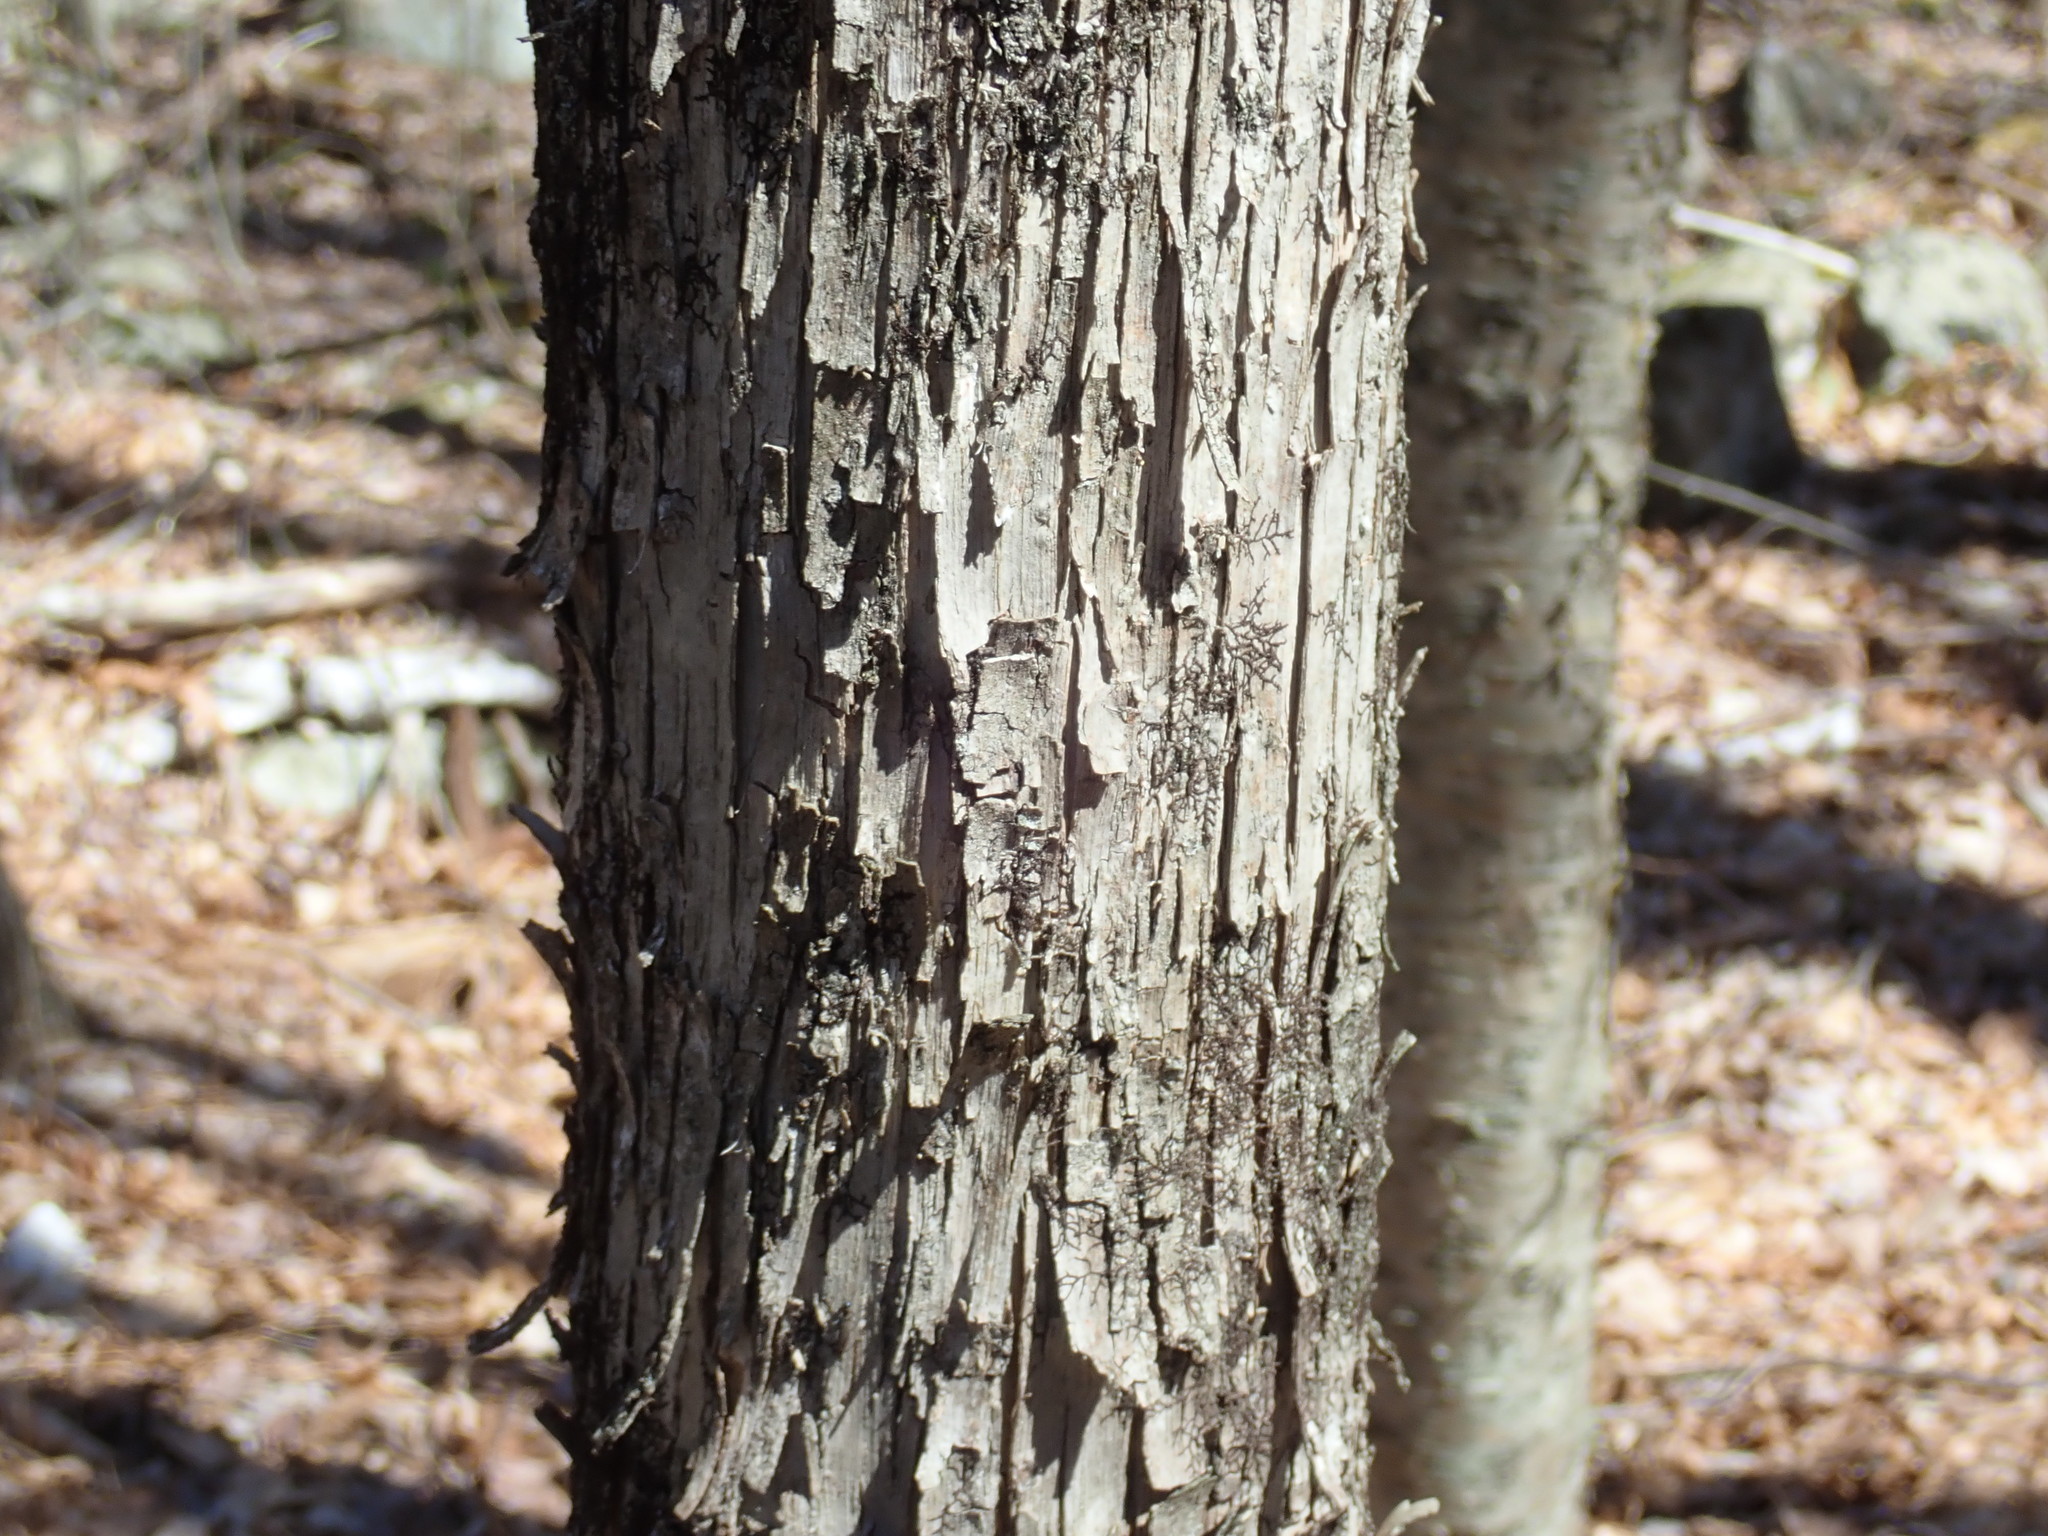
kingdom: Plantae
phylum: Tracheophyta
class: Magnoliopsida
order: Fagales
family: Betulaceae
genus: Ostrya
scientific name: Ostrya virginiana
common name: Ironwood
